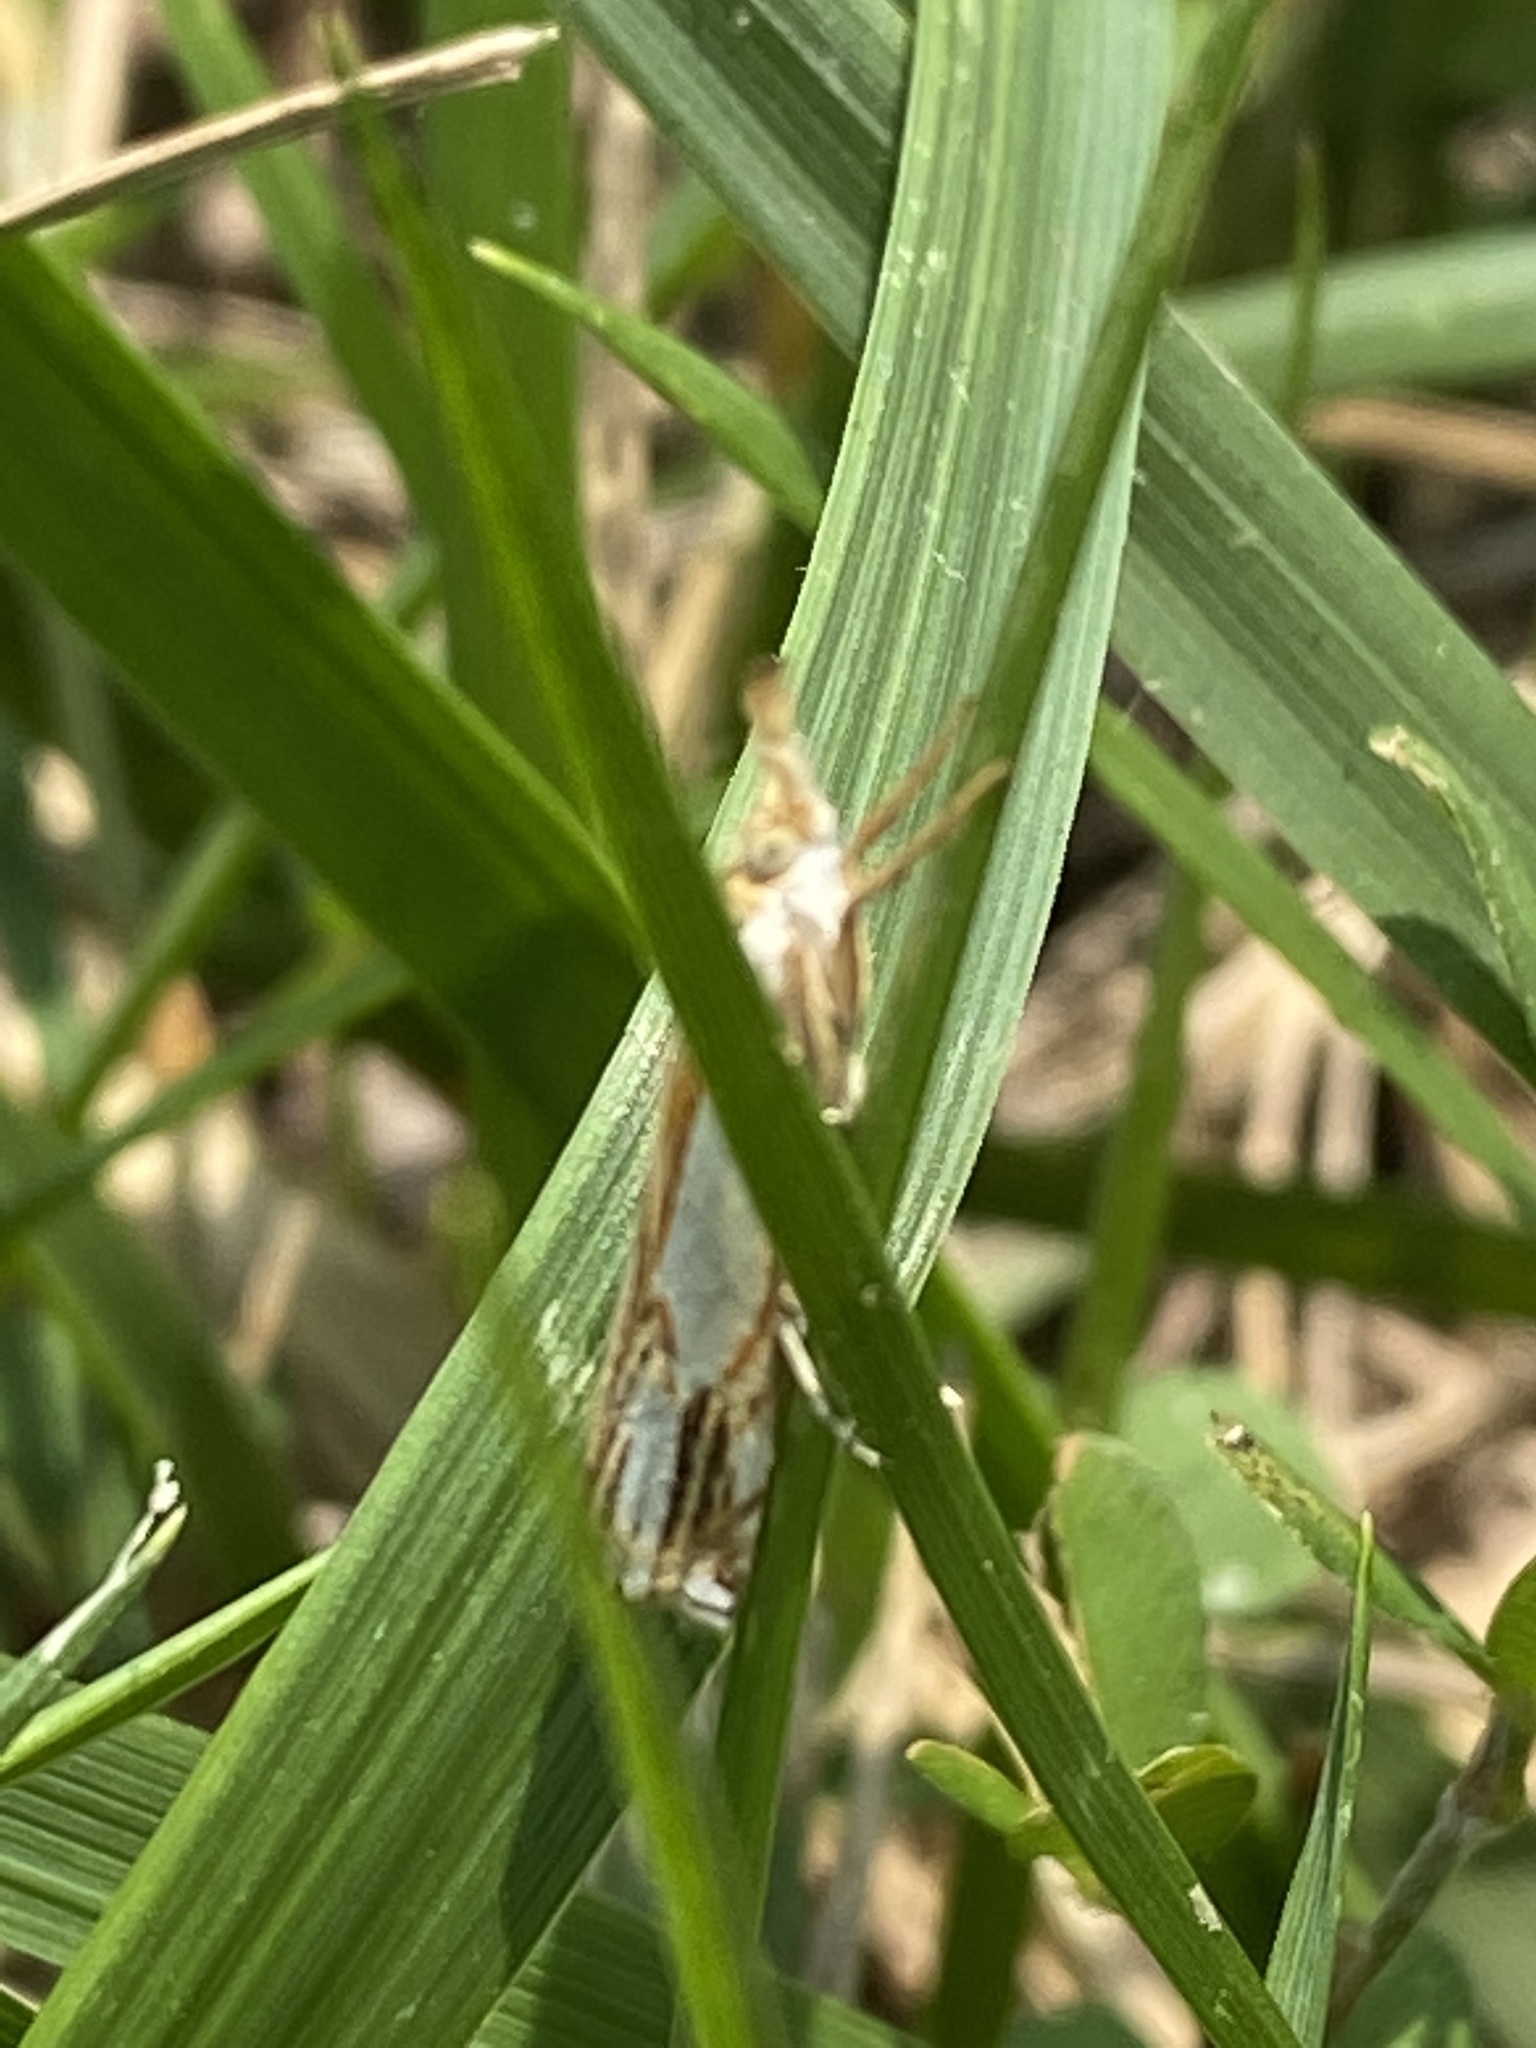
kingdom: Animalia
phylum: Arthropoda
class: Insecta
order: Lepidoptera
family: Crambidae
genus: Crambus
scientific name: Crambus agitatellus
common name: Double-banded grass-veneer
